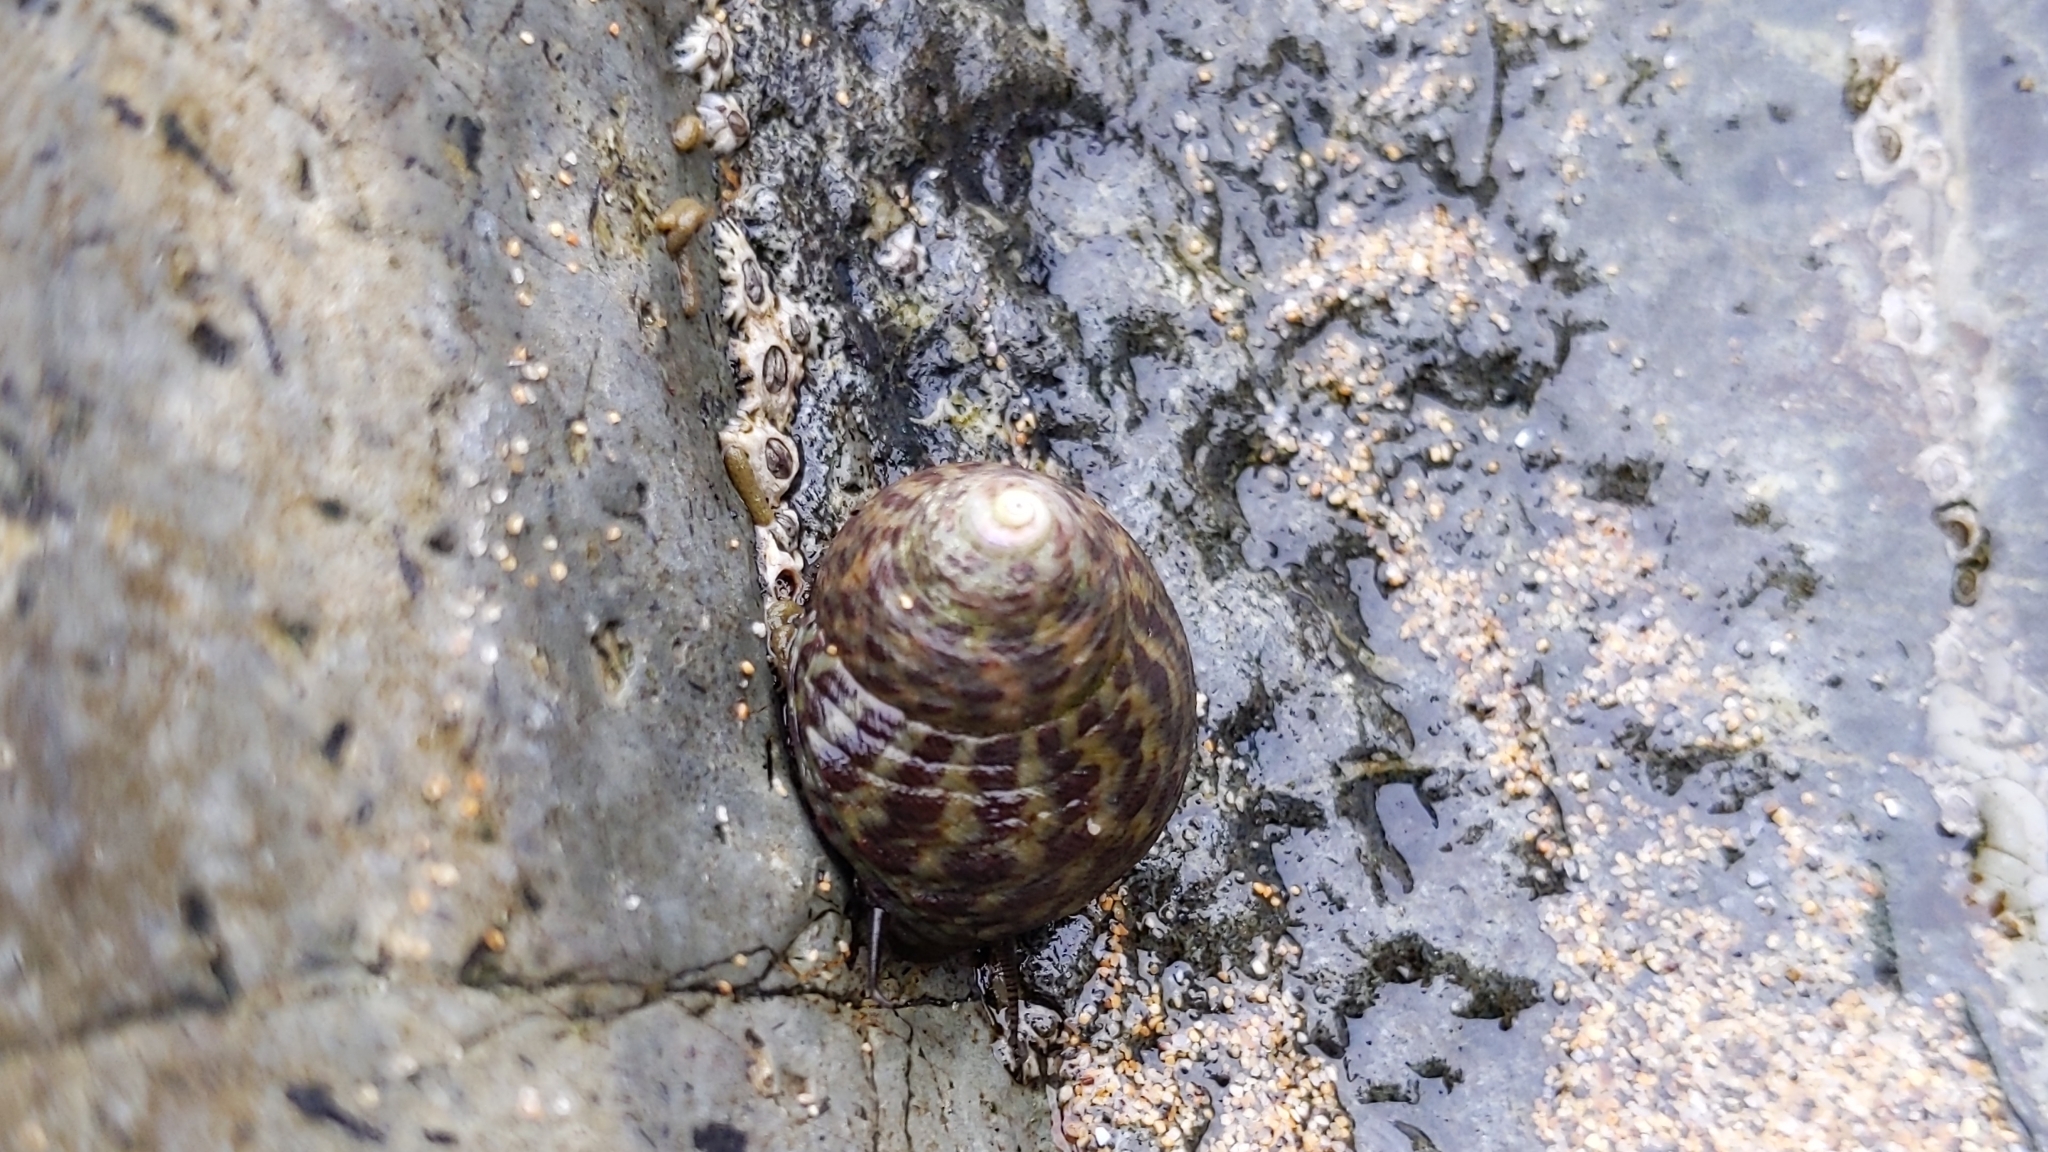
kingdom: Animalia
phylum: Mollusca
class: Gastropoda
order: Trochida
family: Trochidae
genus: Phorcus
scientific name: Phorcus sauciatus
